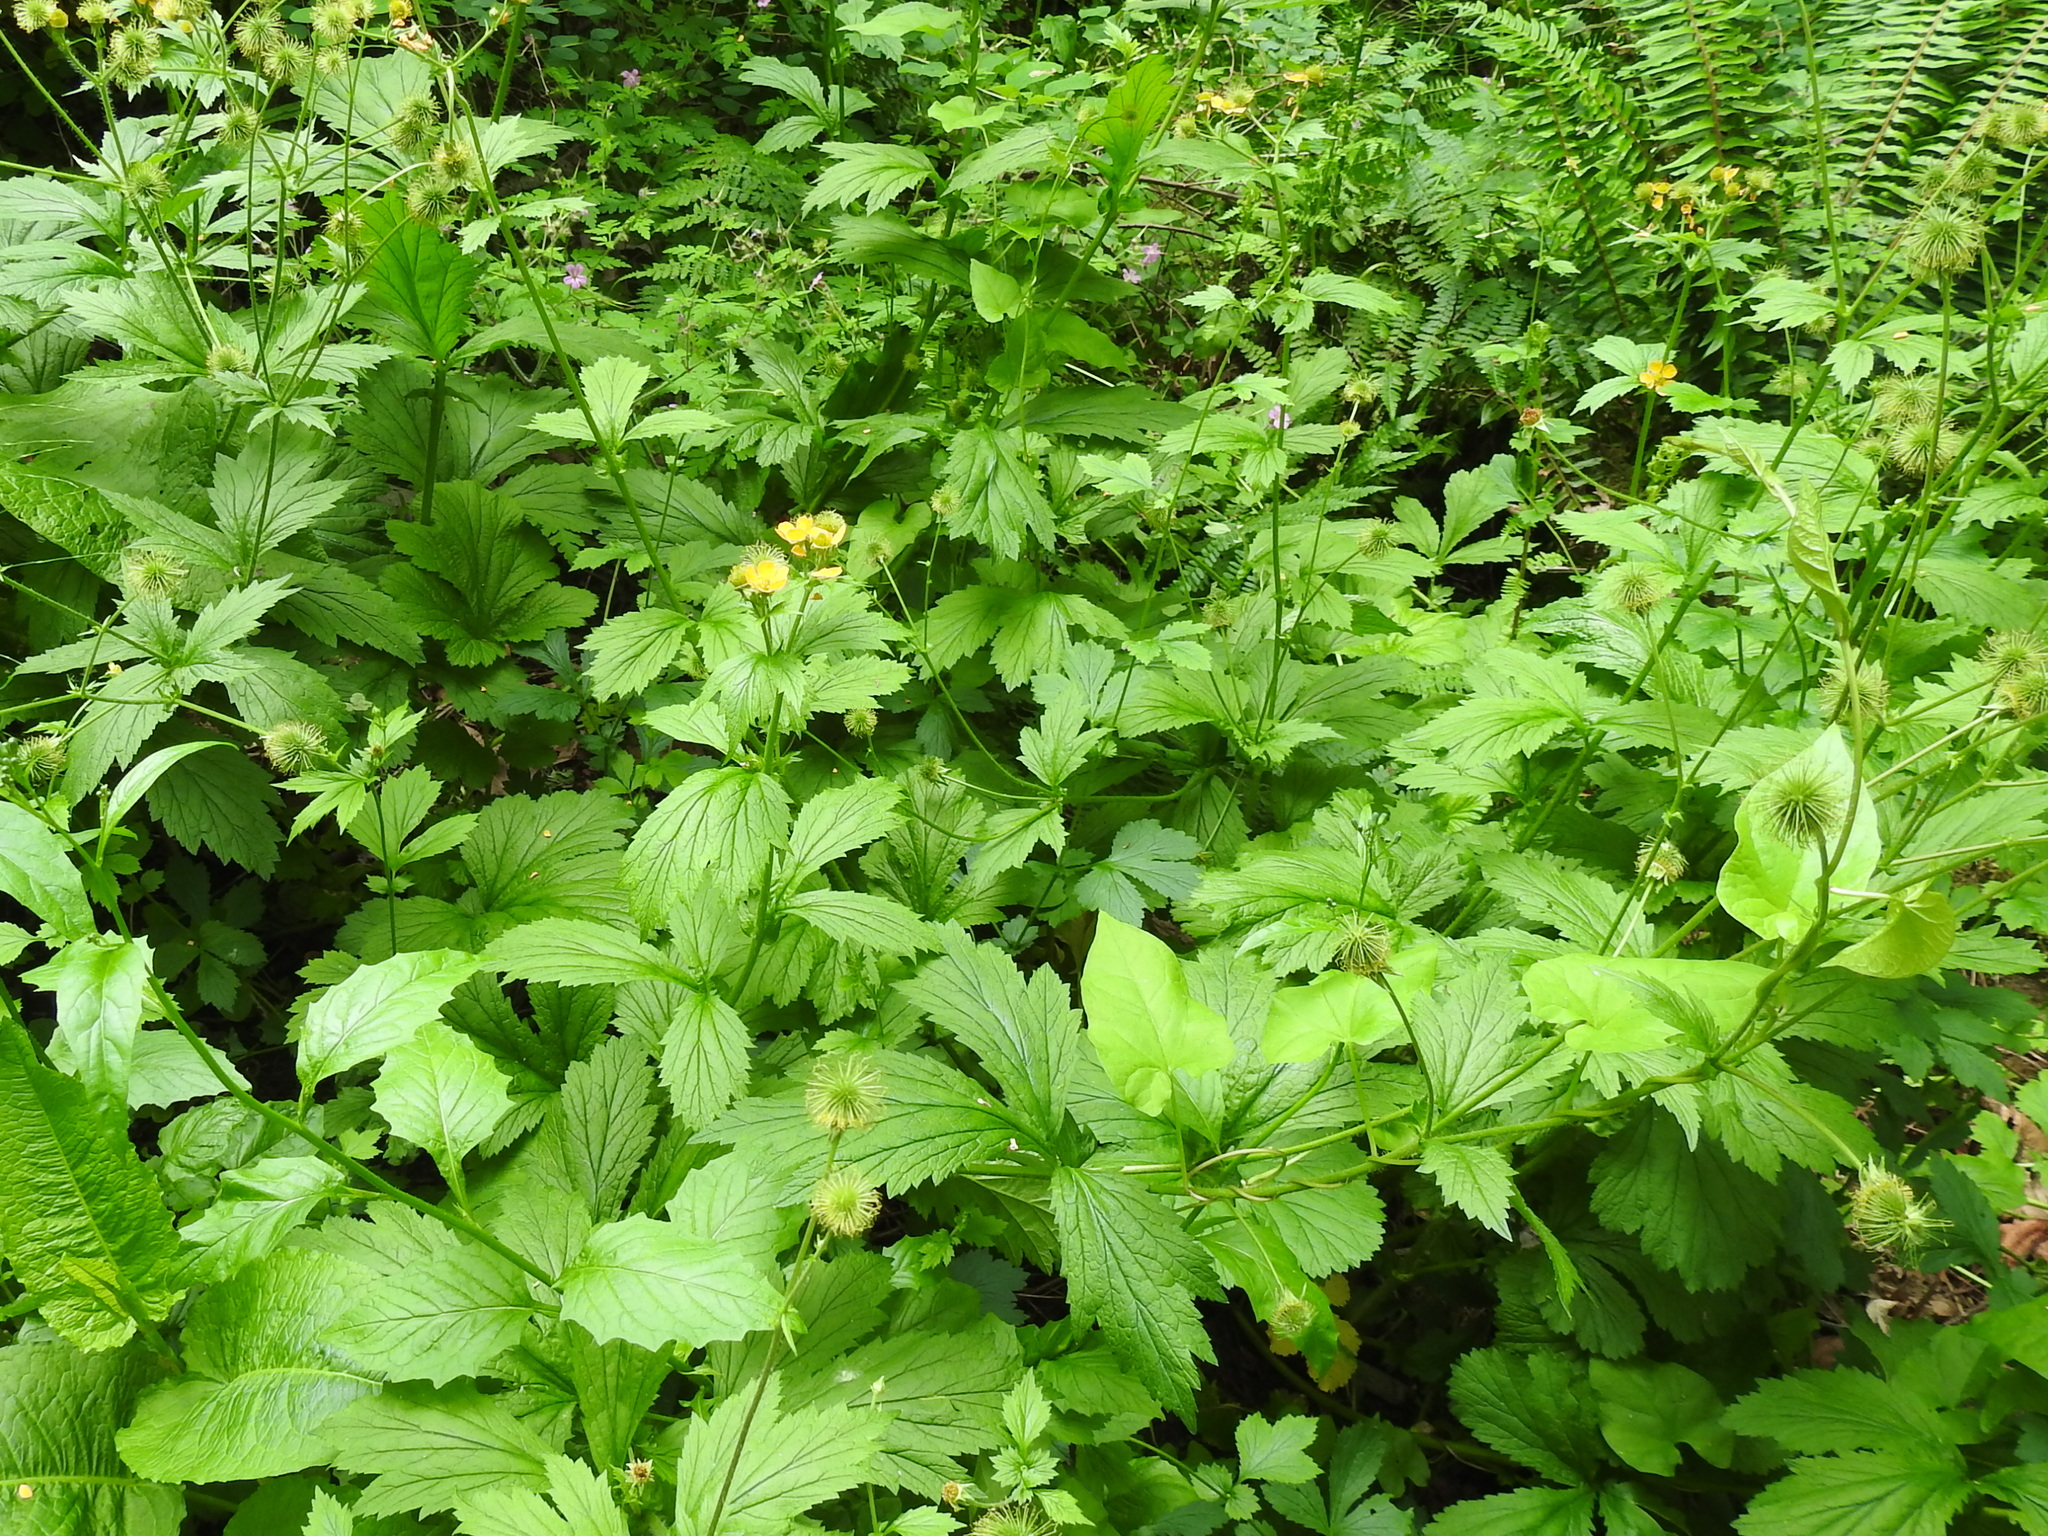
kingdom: Plantae
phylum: Tracheophyta
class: Magnoliopsida
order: Rosales
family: Rosaceae
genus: Geum
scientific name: Geum macrophyllum
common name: Large-leaved avens
